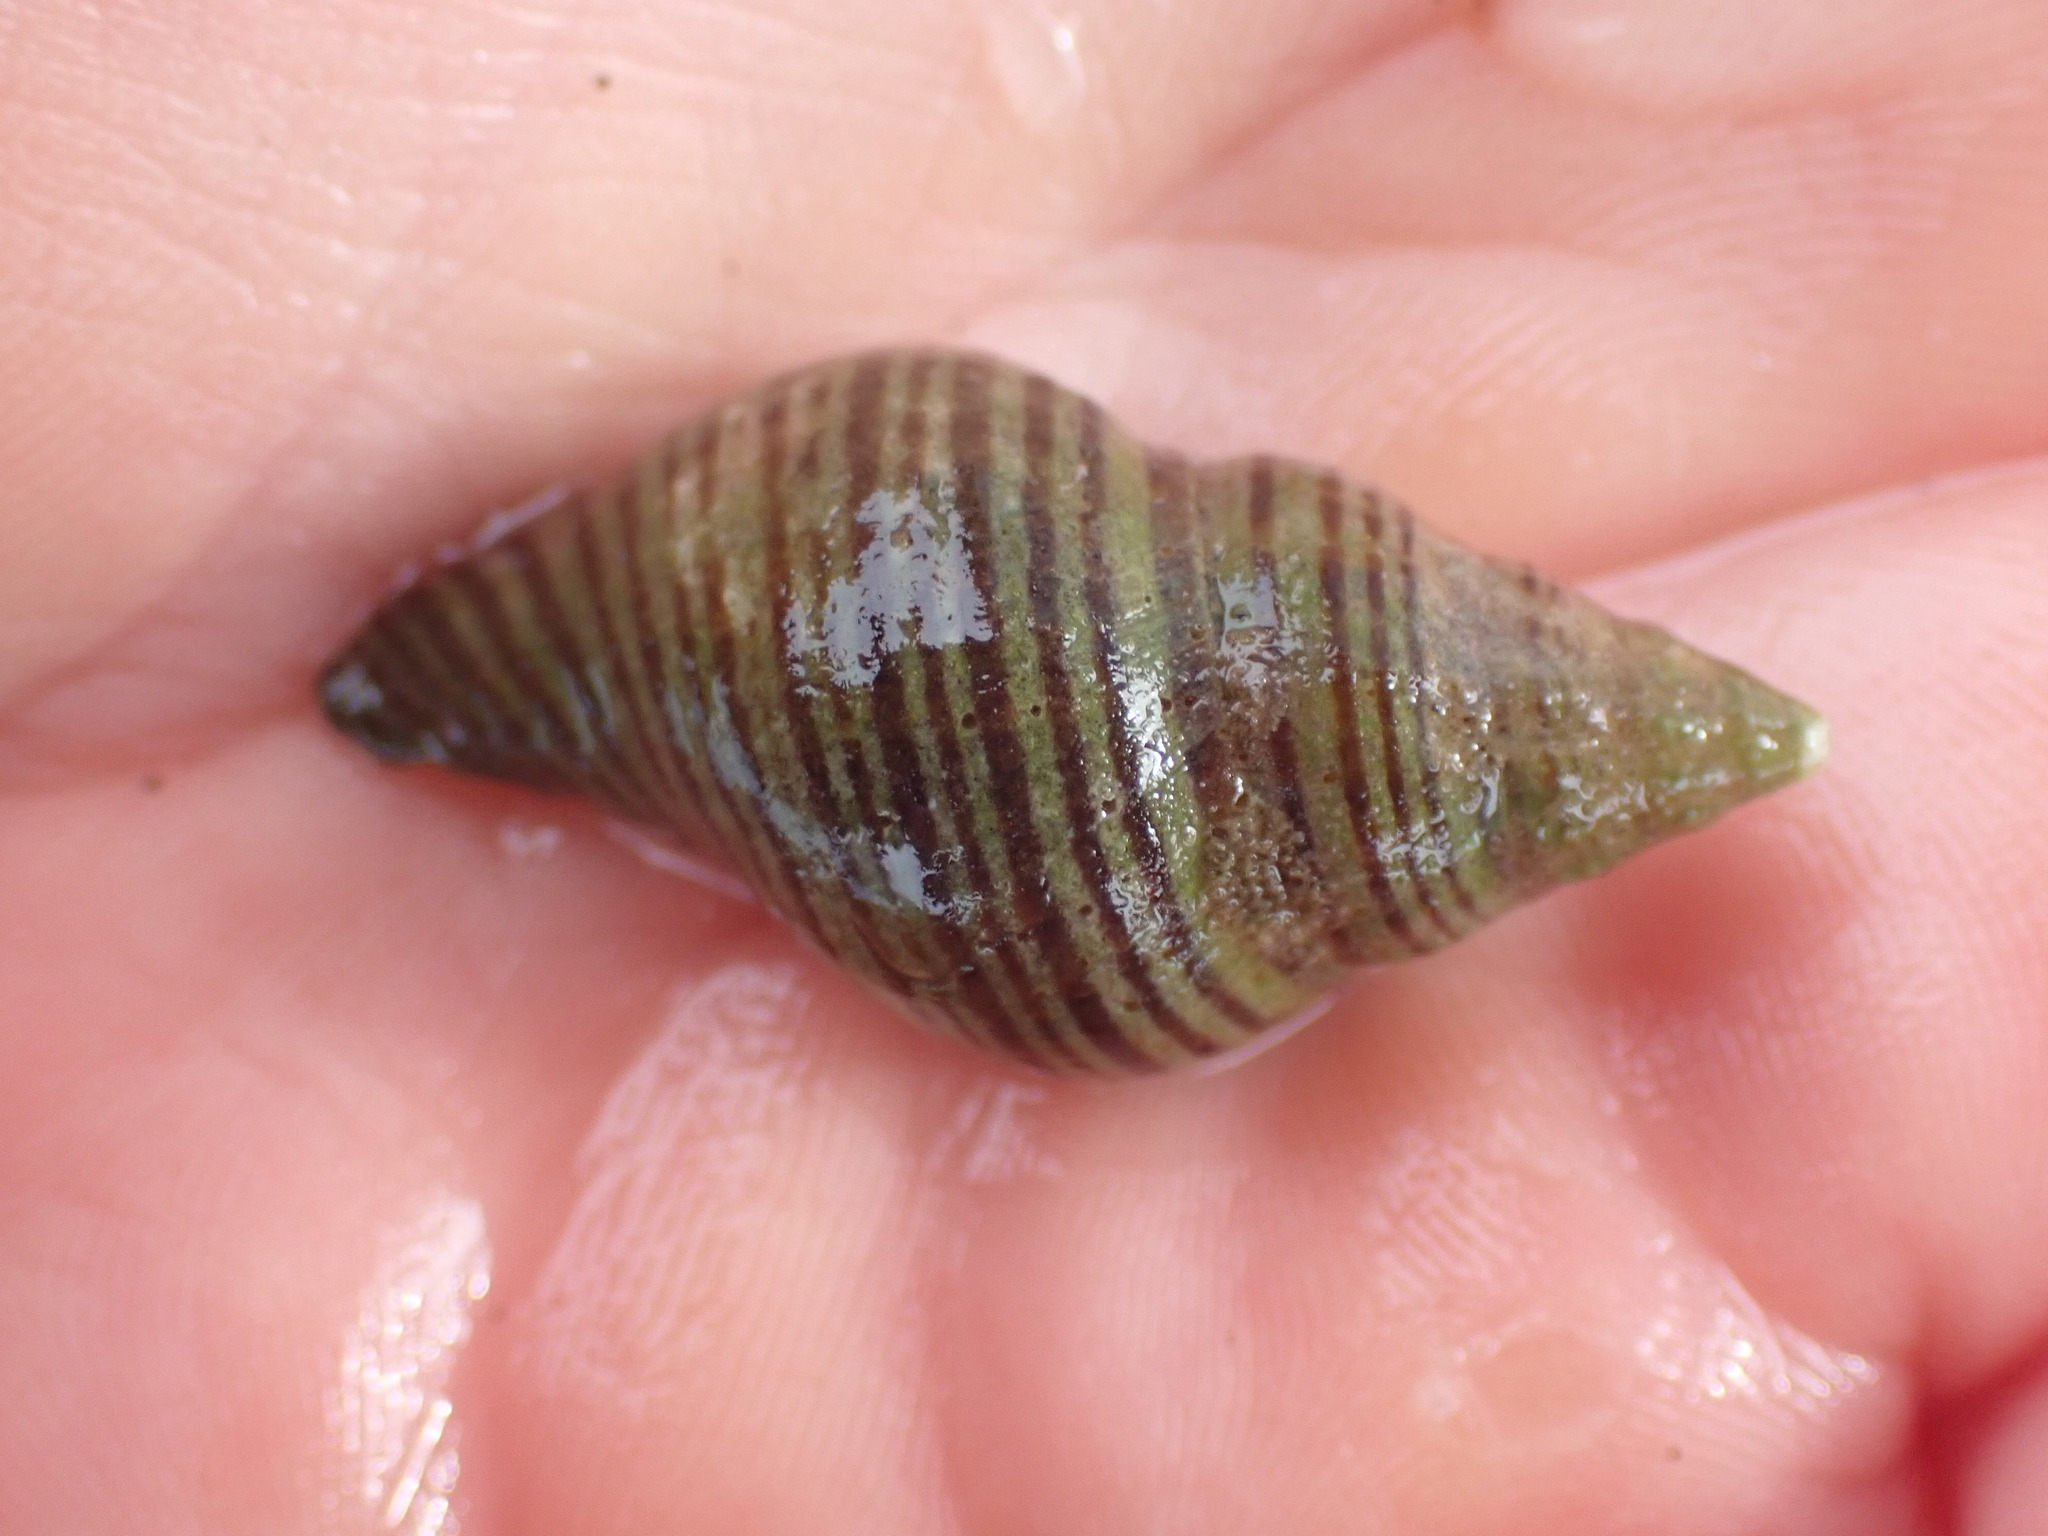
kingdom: Animalia
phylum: Mollusca
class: Gastropoda
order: Neogastropoda
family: Tudiclidae
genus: Buccinulum
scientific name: Buccinulum linea
